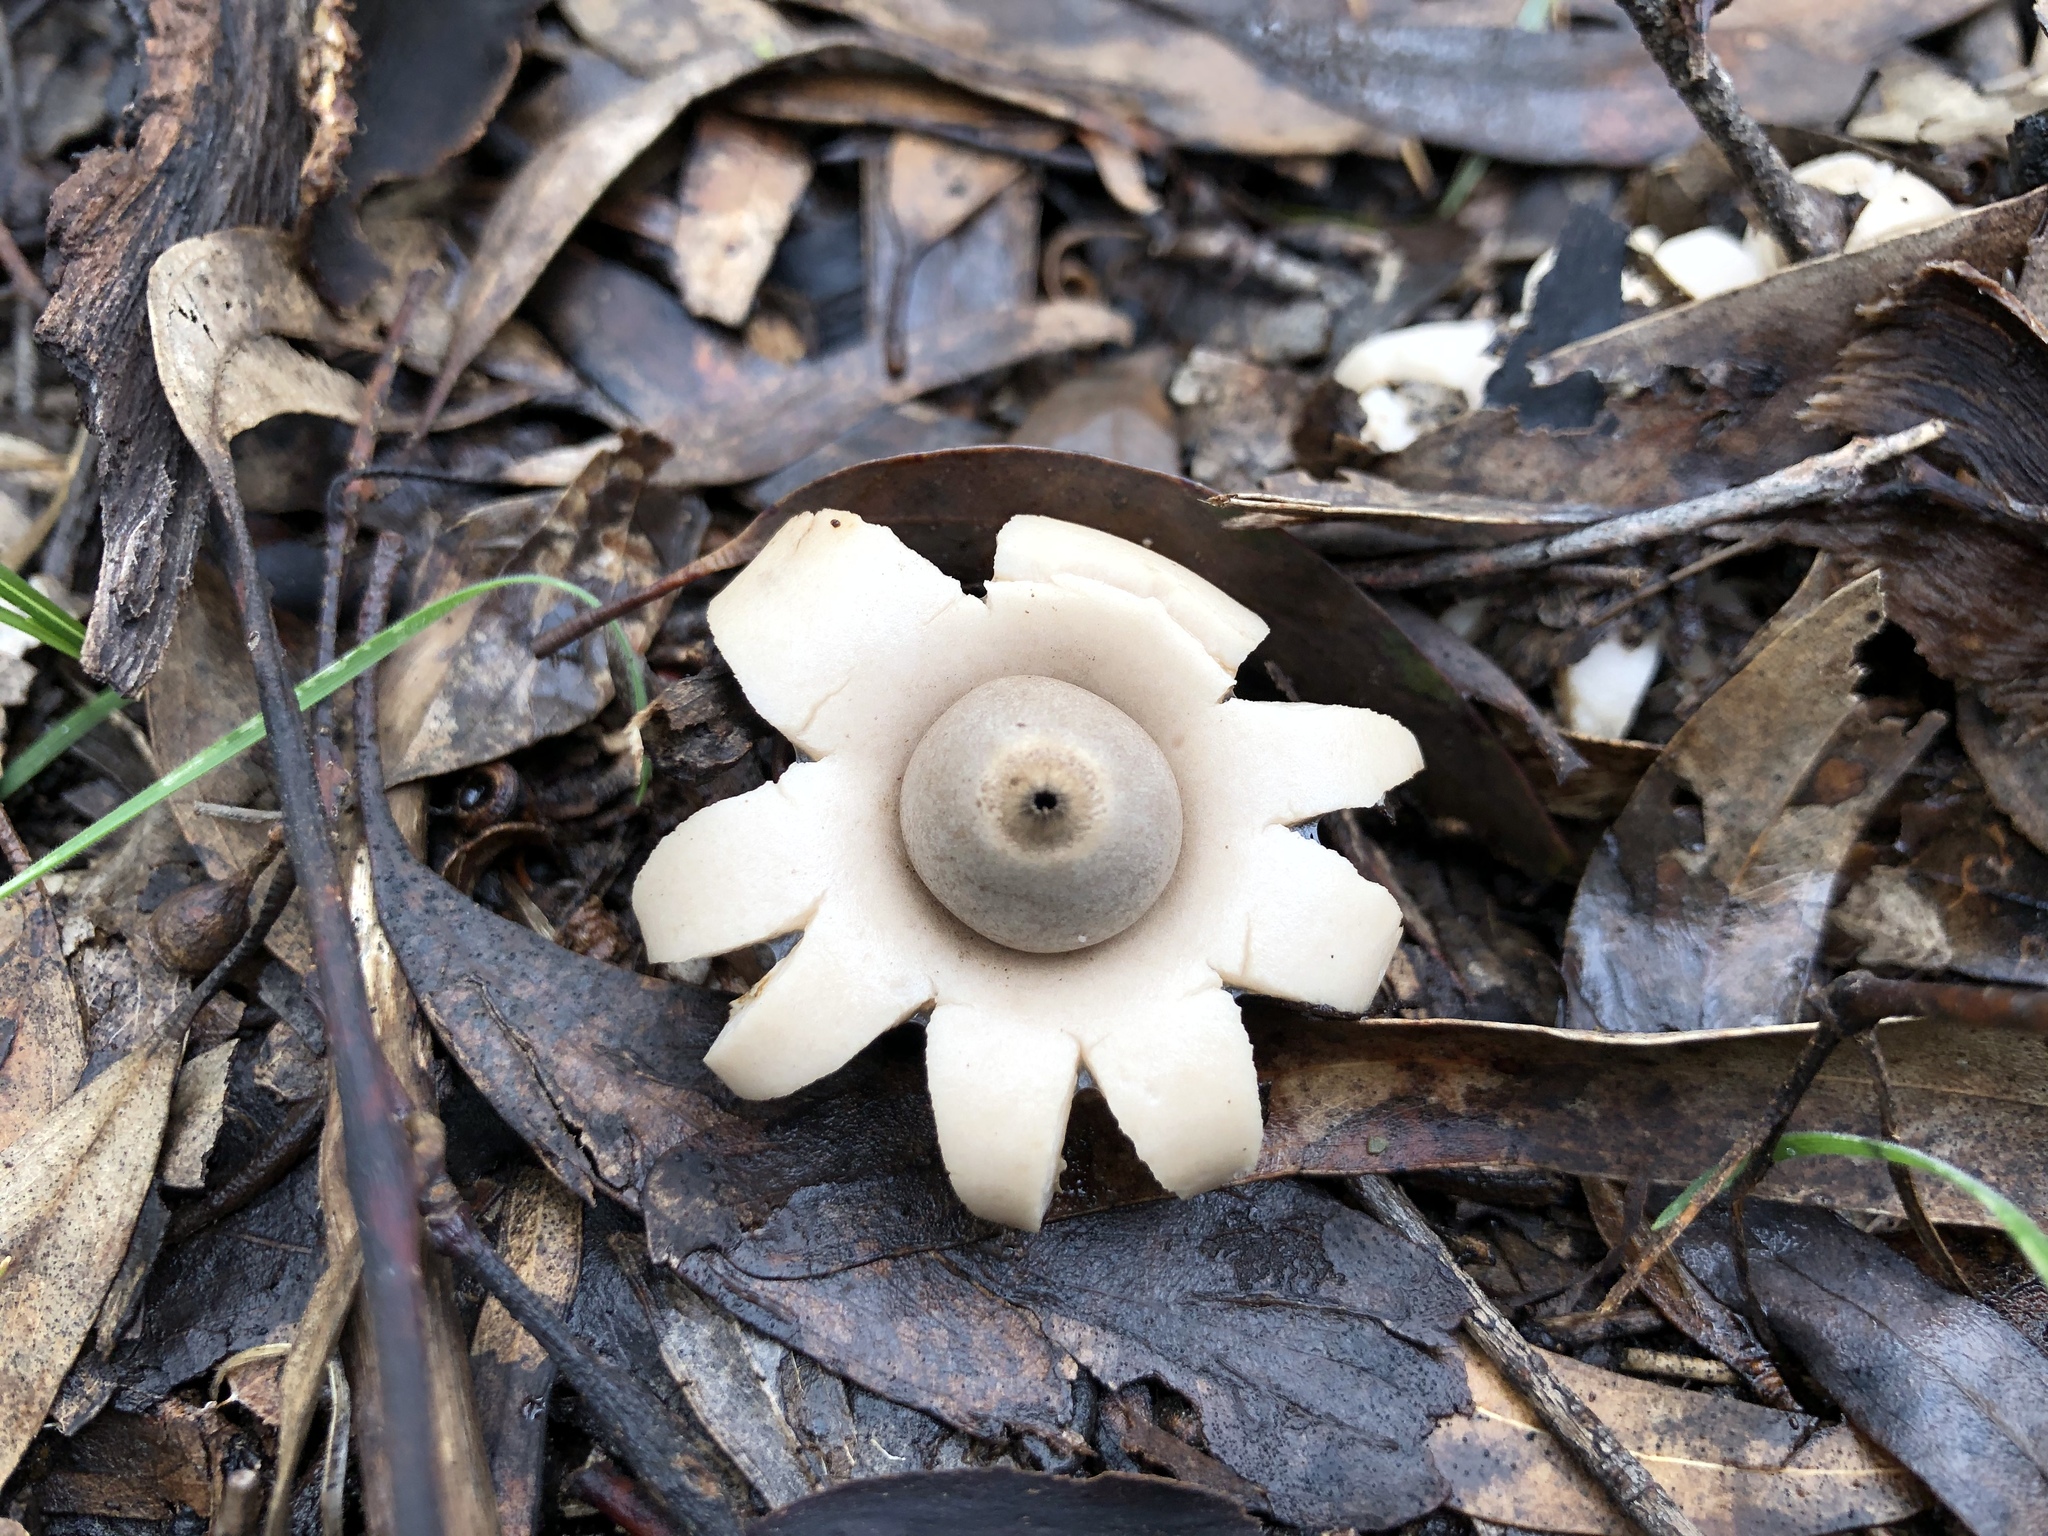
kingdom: Fungi
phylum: Basidiomycota
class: Agaricomycetes
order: Geastrales
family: Geastraceae
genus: Geastrum
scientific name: Geastrum triplex
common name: Collared earthstar
